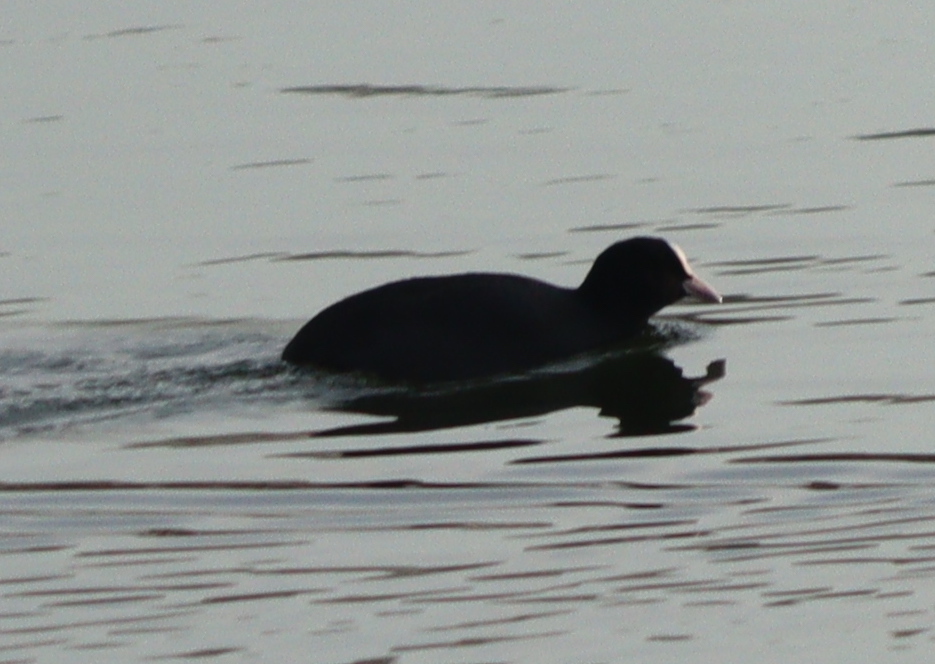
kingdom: Animalia
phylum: Chordata
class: Aves
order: Gruiformes
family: Rallidae
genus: Fulica
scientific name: Fulica atra
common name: Eurasian coot
